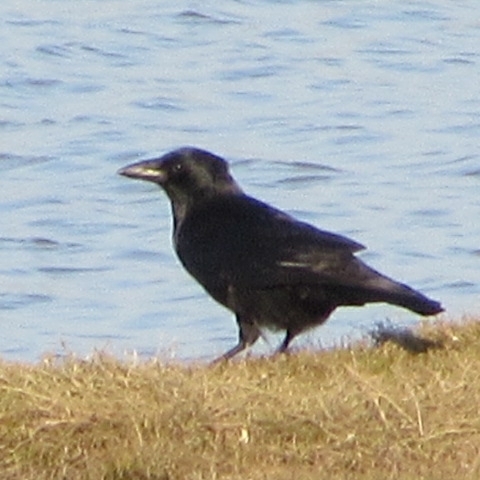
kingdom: Animalia
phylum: Chordata
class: Aves
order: Passeriformes
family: Corvidae
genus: Corvus
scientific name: Corvus corone
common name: Carrion crow
